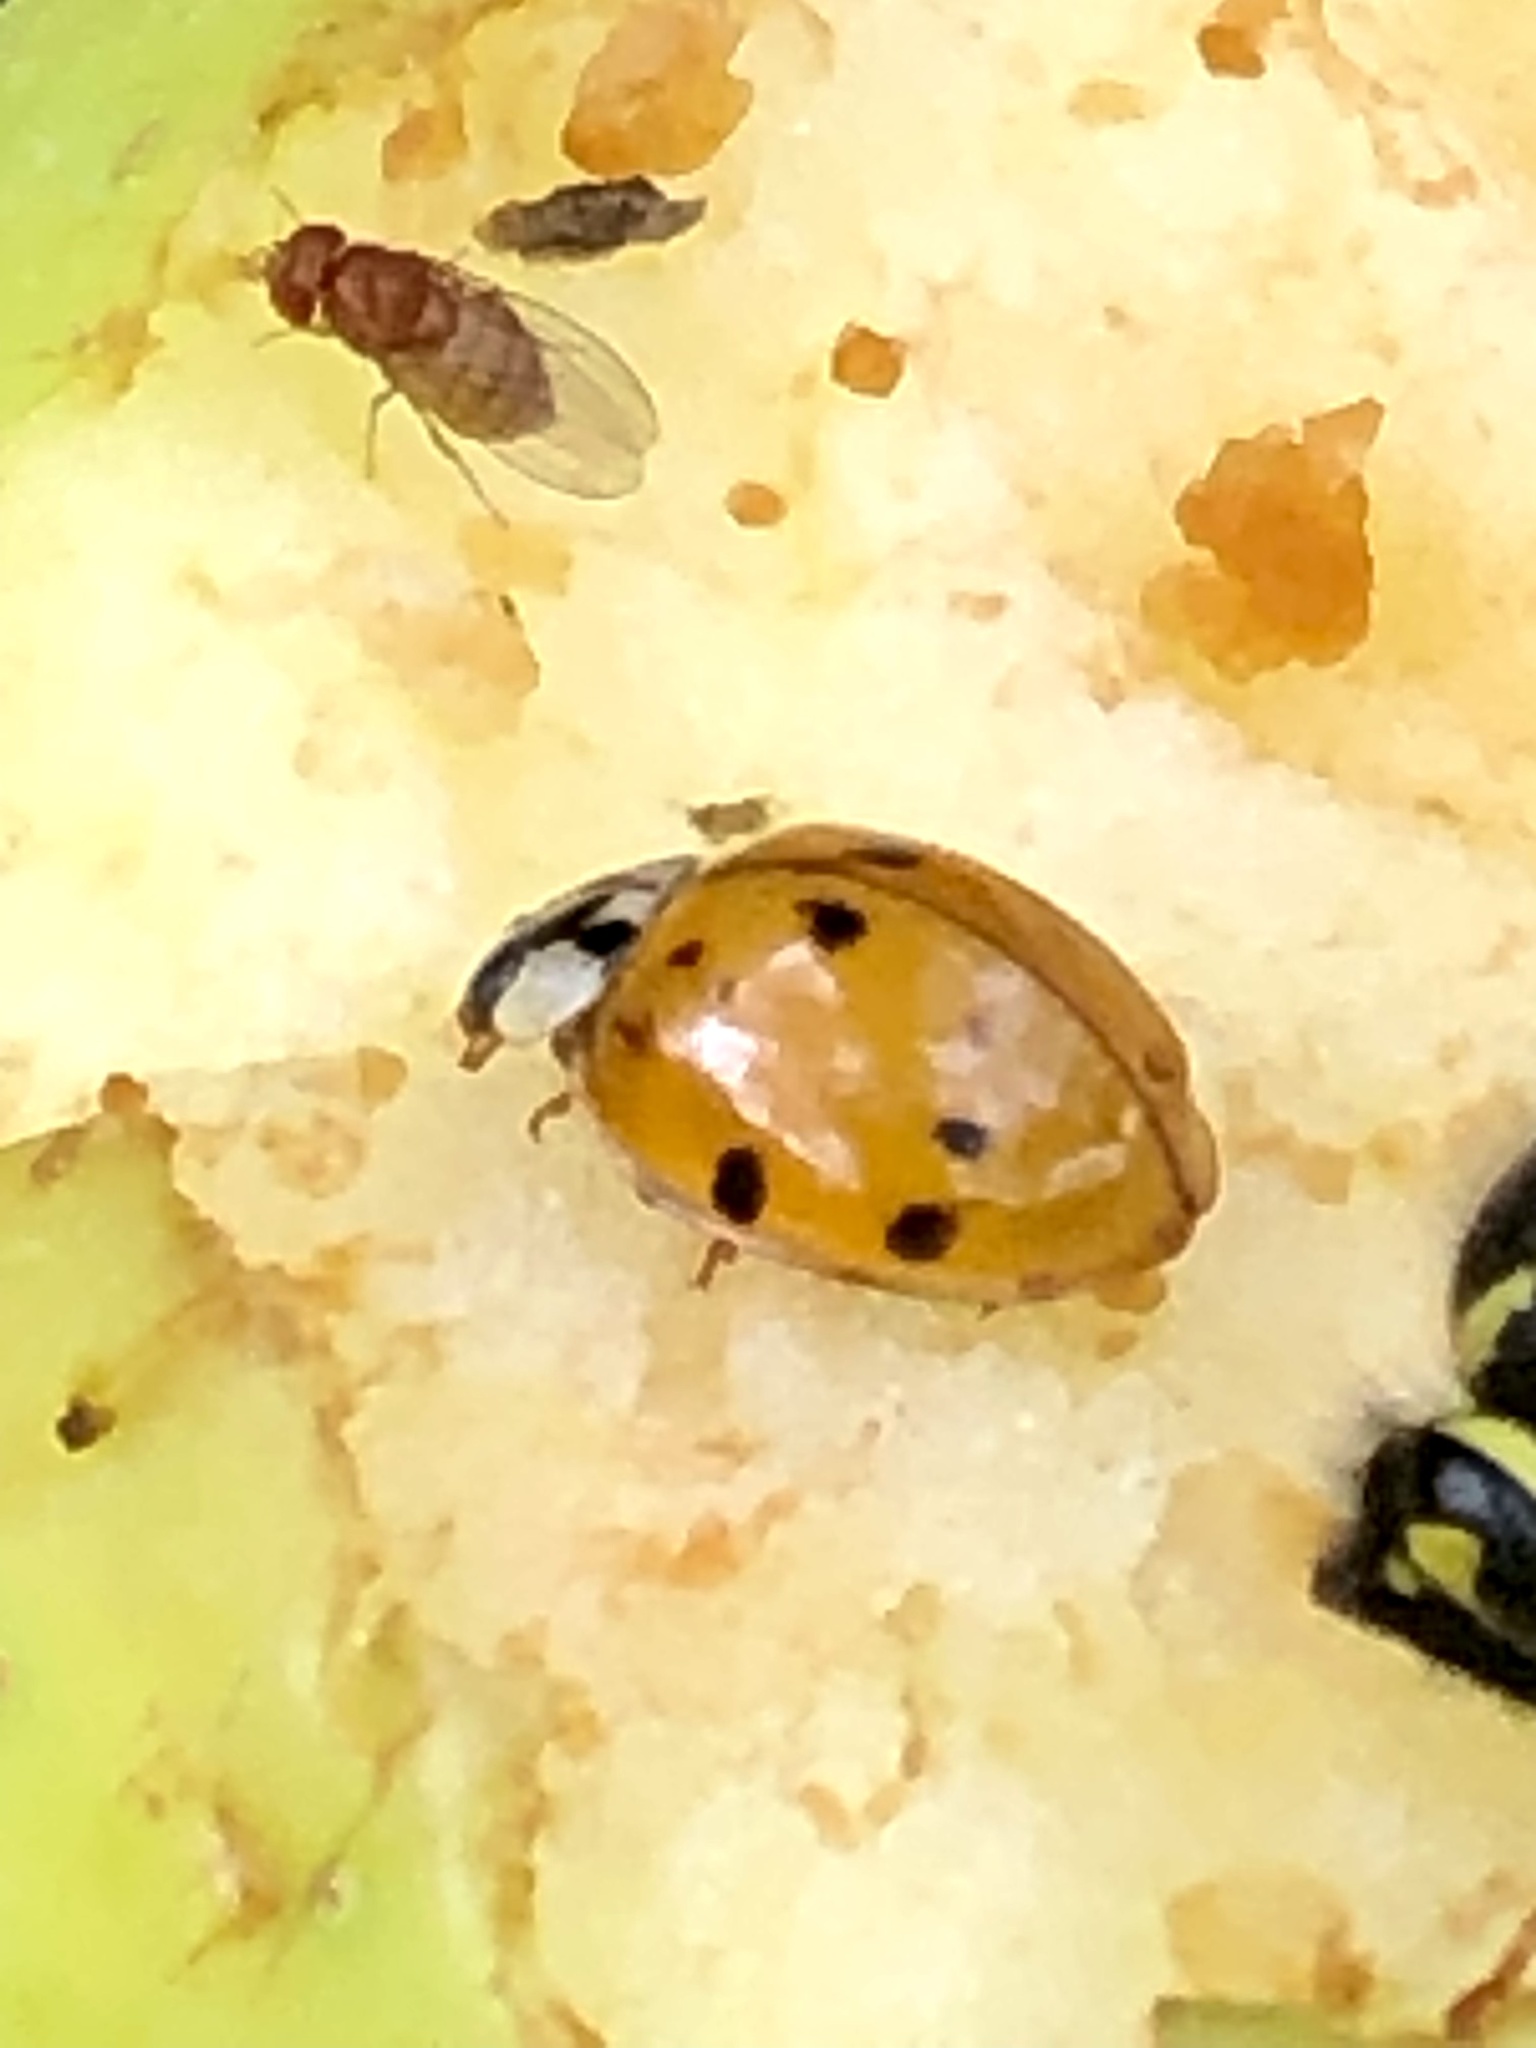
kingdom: Animalia
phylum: Arthropoda
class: Insecta
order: Coleoptera
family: Coccinellidae
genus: Harmonia
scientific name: Harmonia axyridis
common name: Harlequin ladybird
